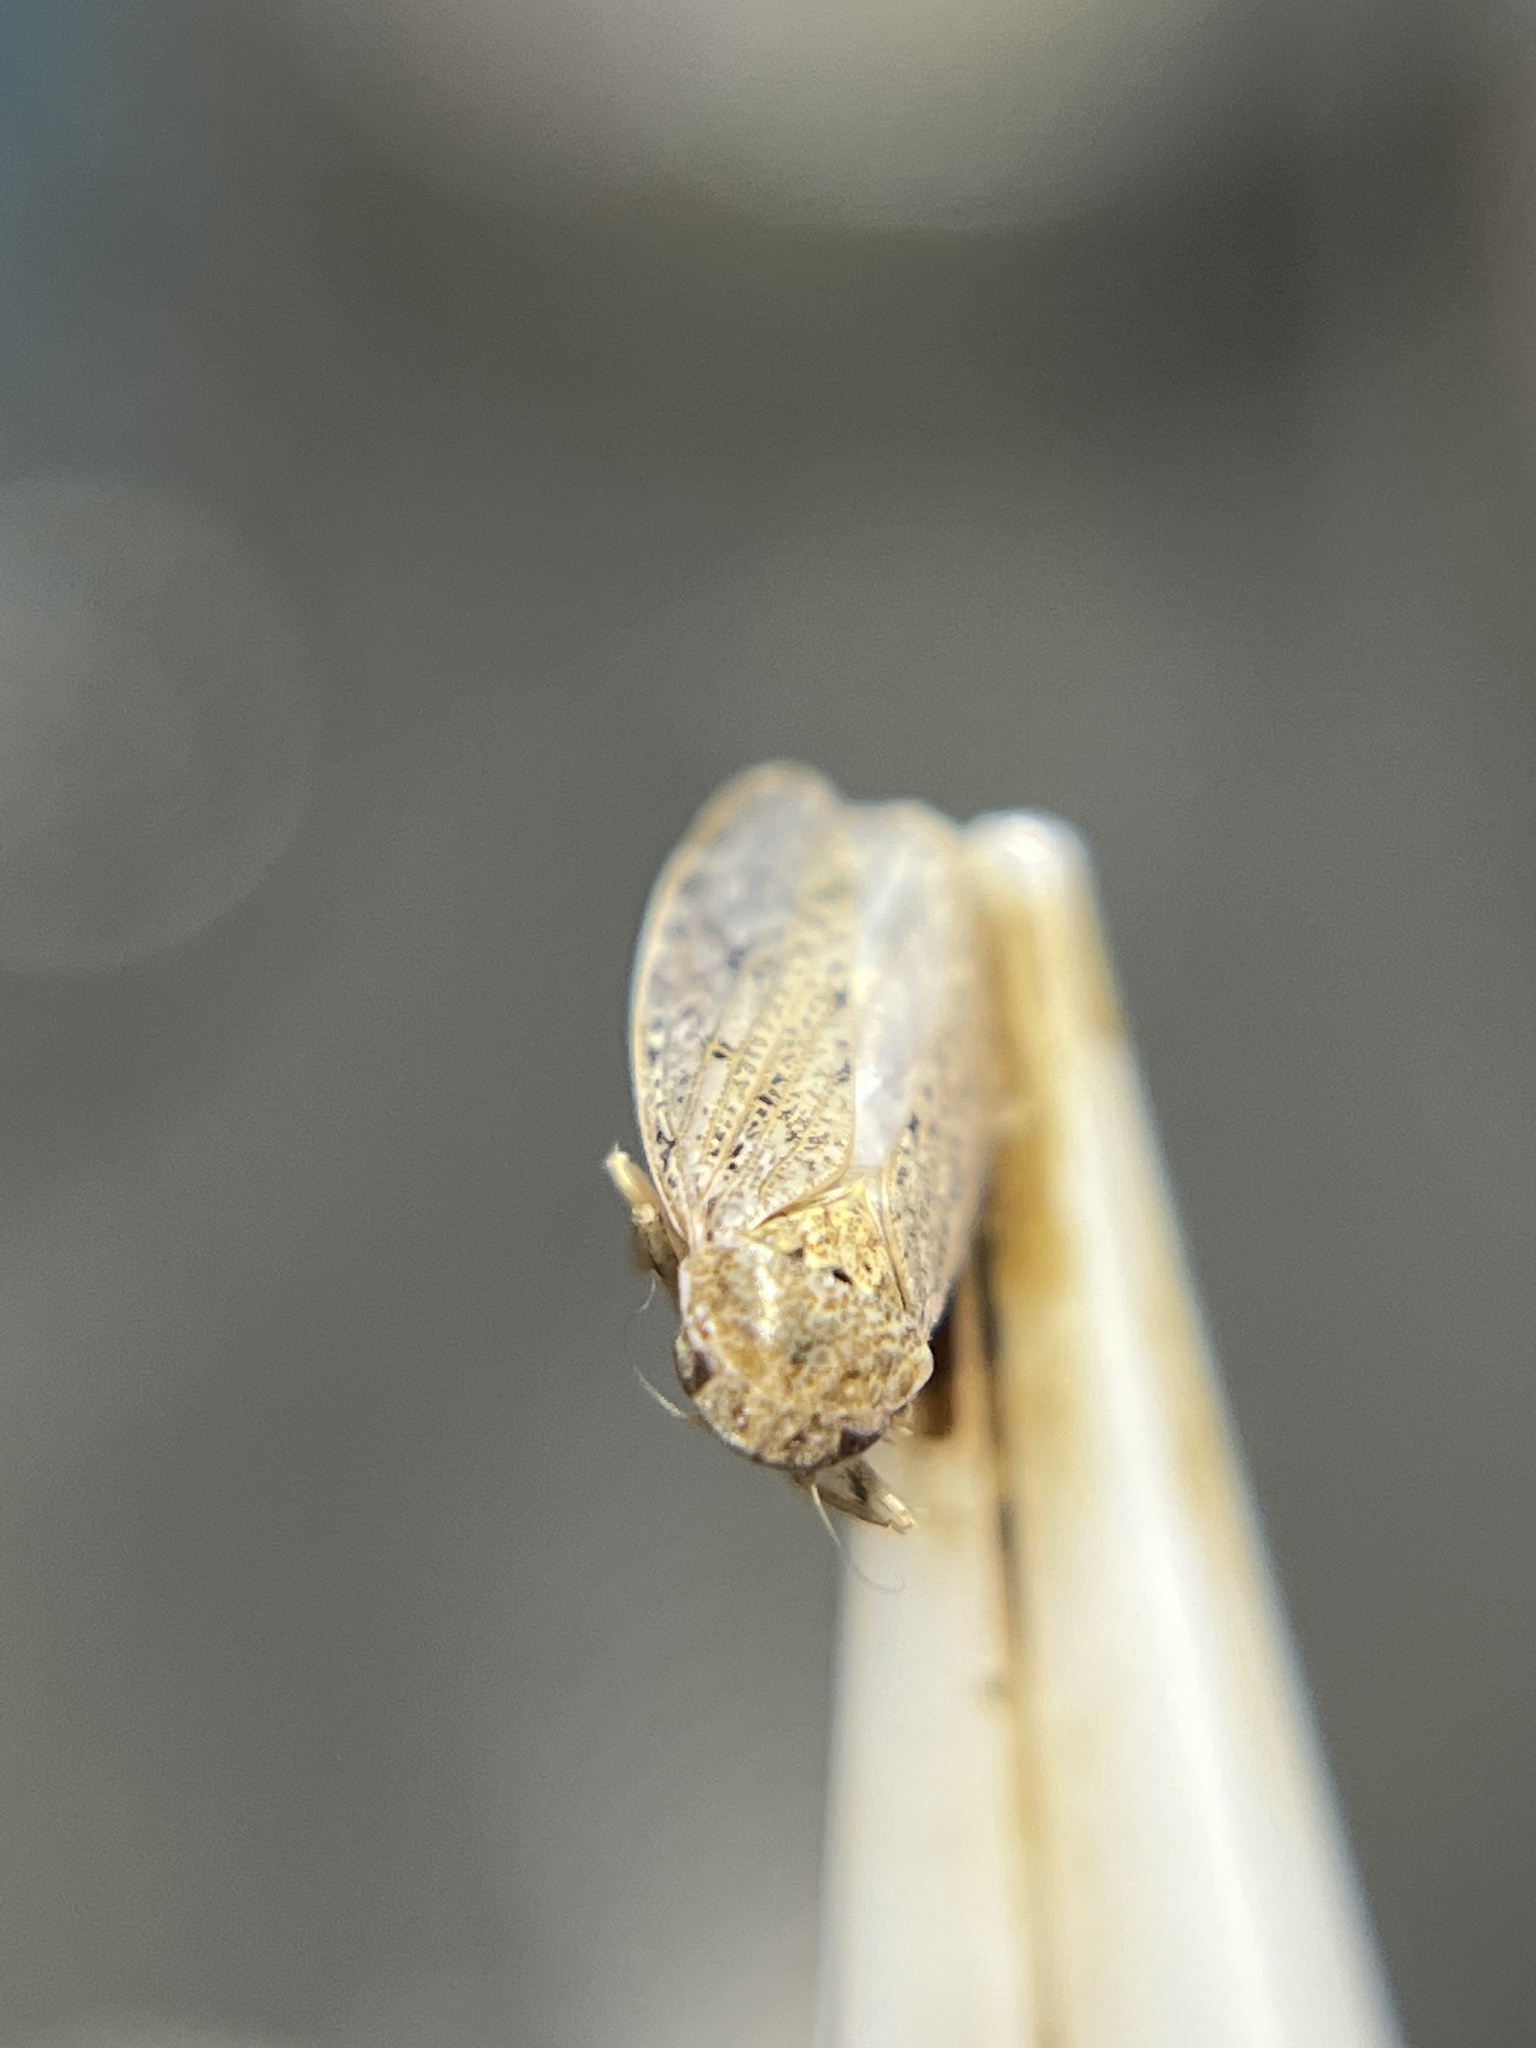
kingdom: Animalia
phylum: Arthropoda
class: Insecta
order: Hemiptera
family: Cicadellidae
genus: Curtara
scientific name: Curtara insularis
